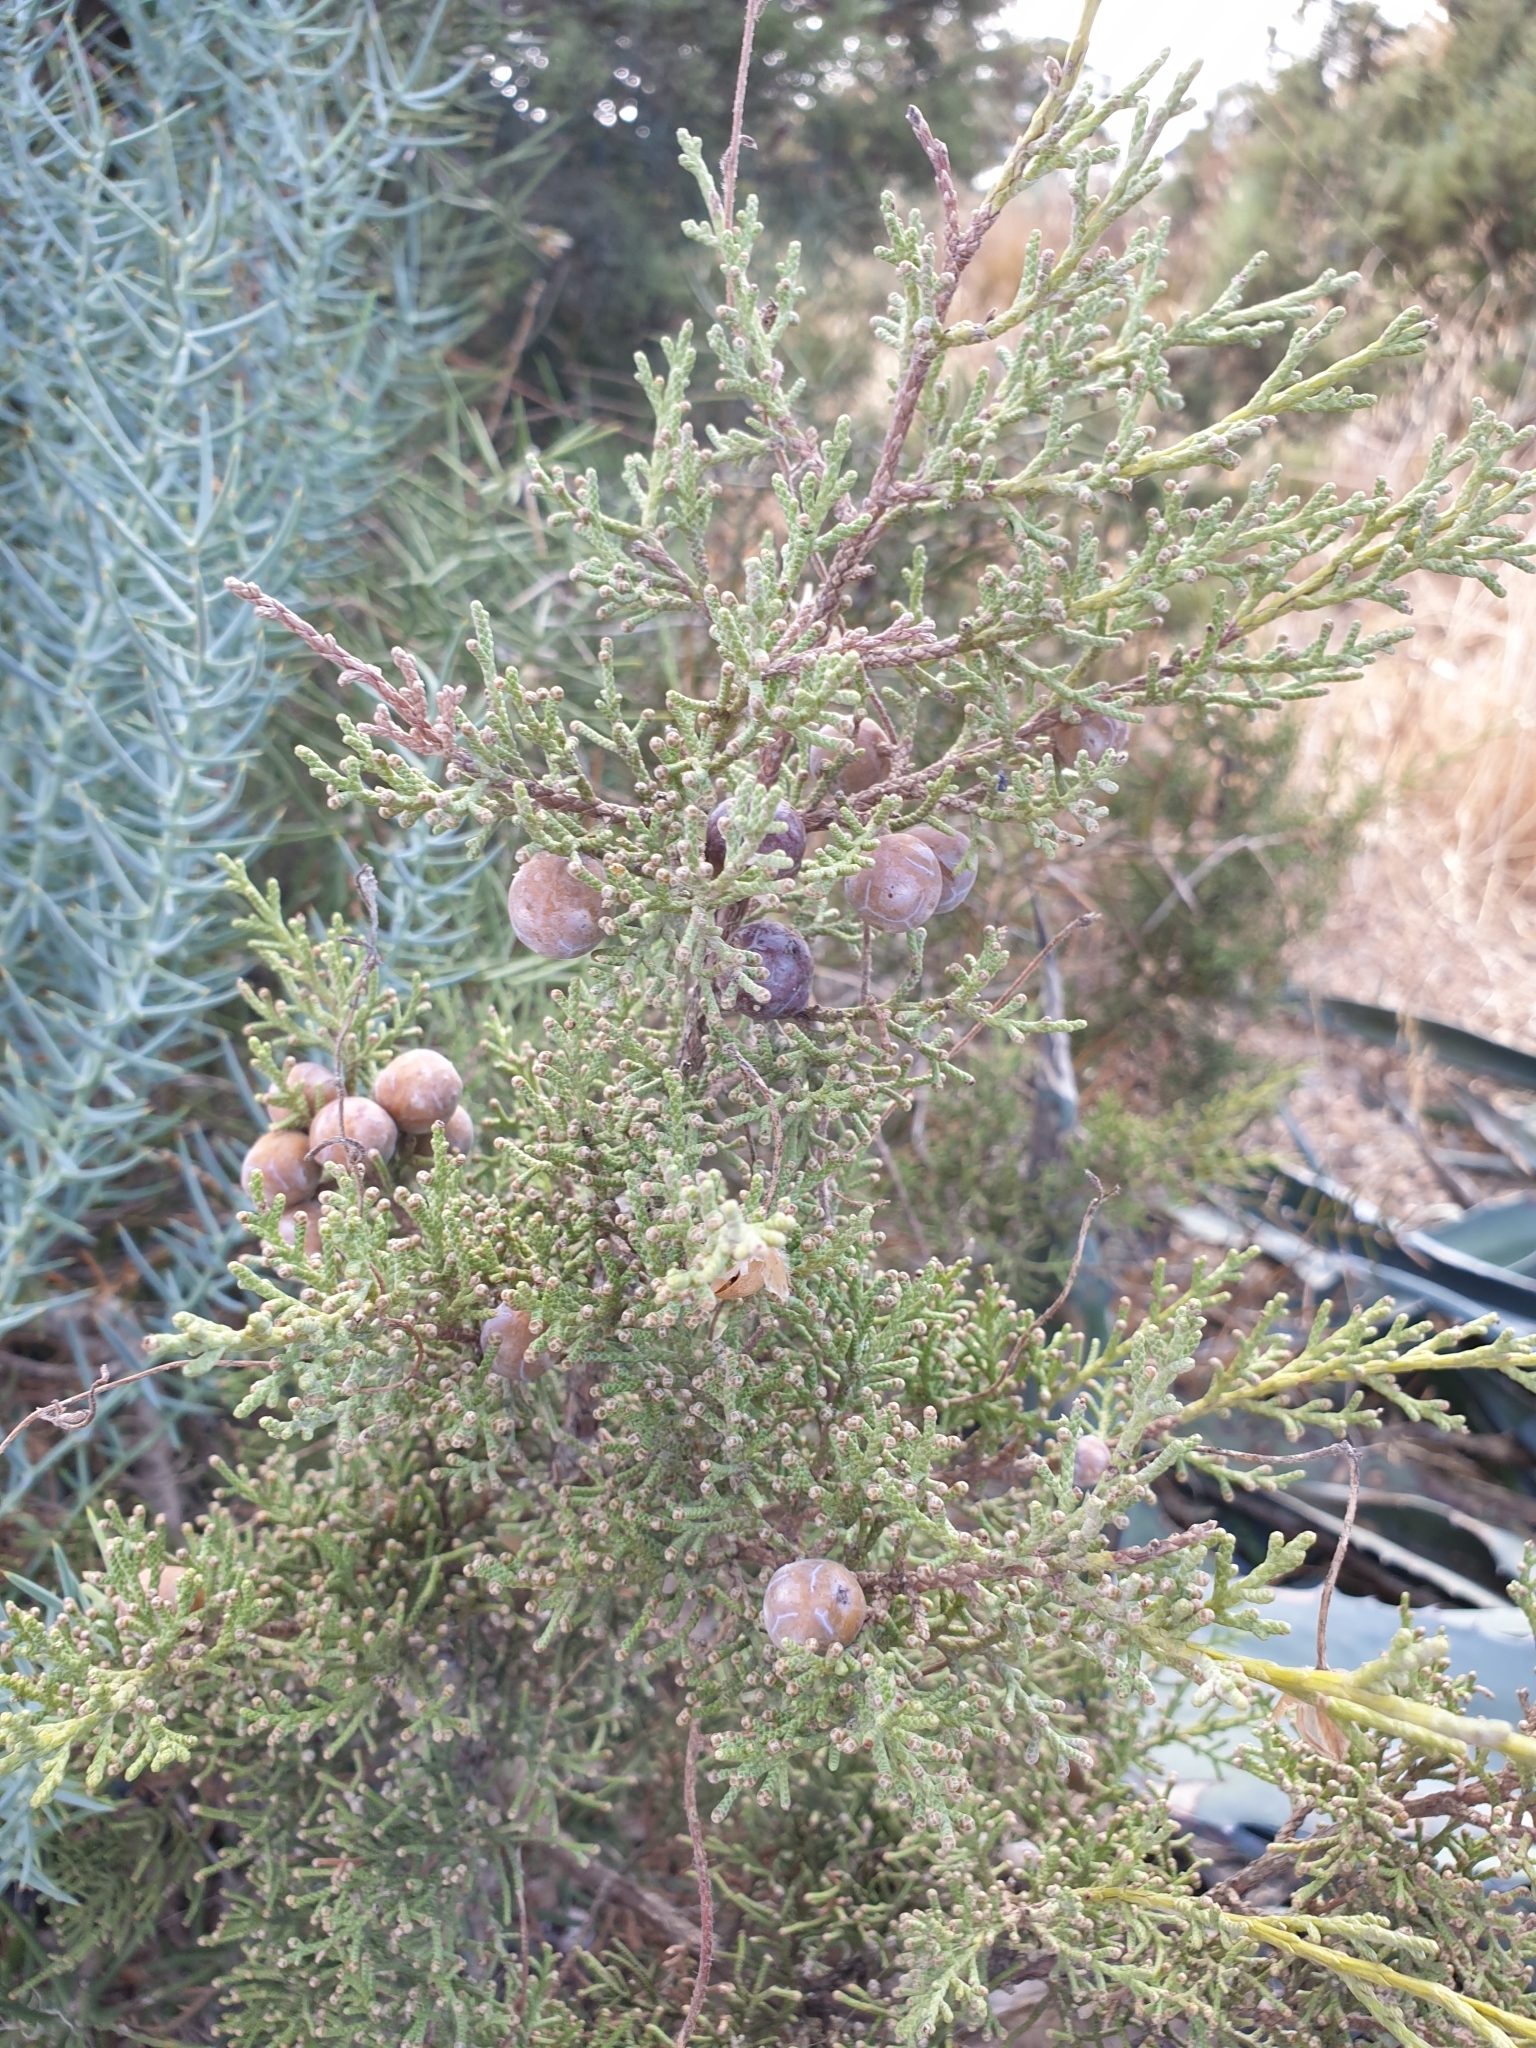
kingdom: Plantae
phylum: Tracheophyta
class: Pinopsida
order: Pinales
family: Cupressaceae
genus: Juniperus
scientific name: Juniperus phoenicea
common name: Phoenician juniper
